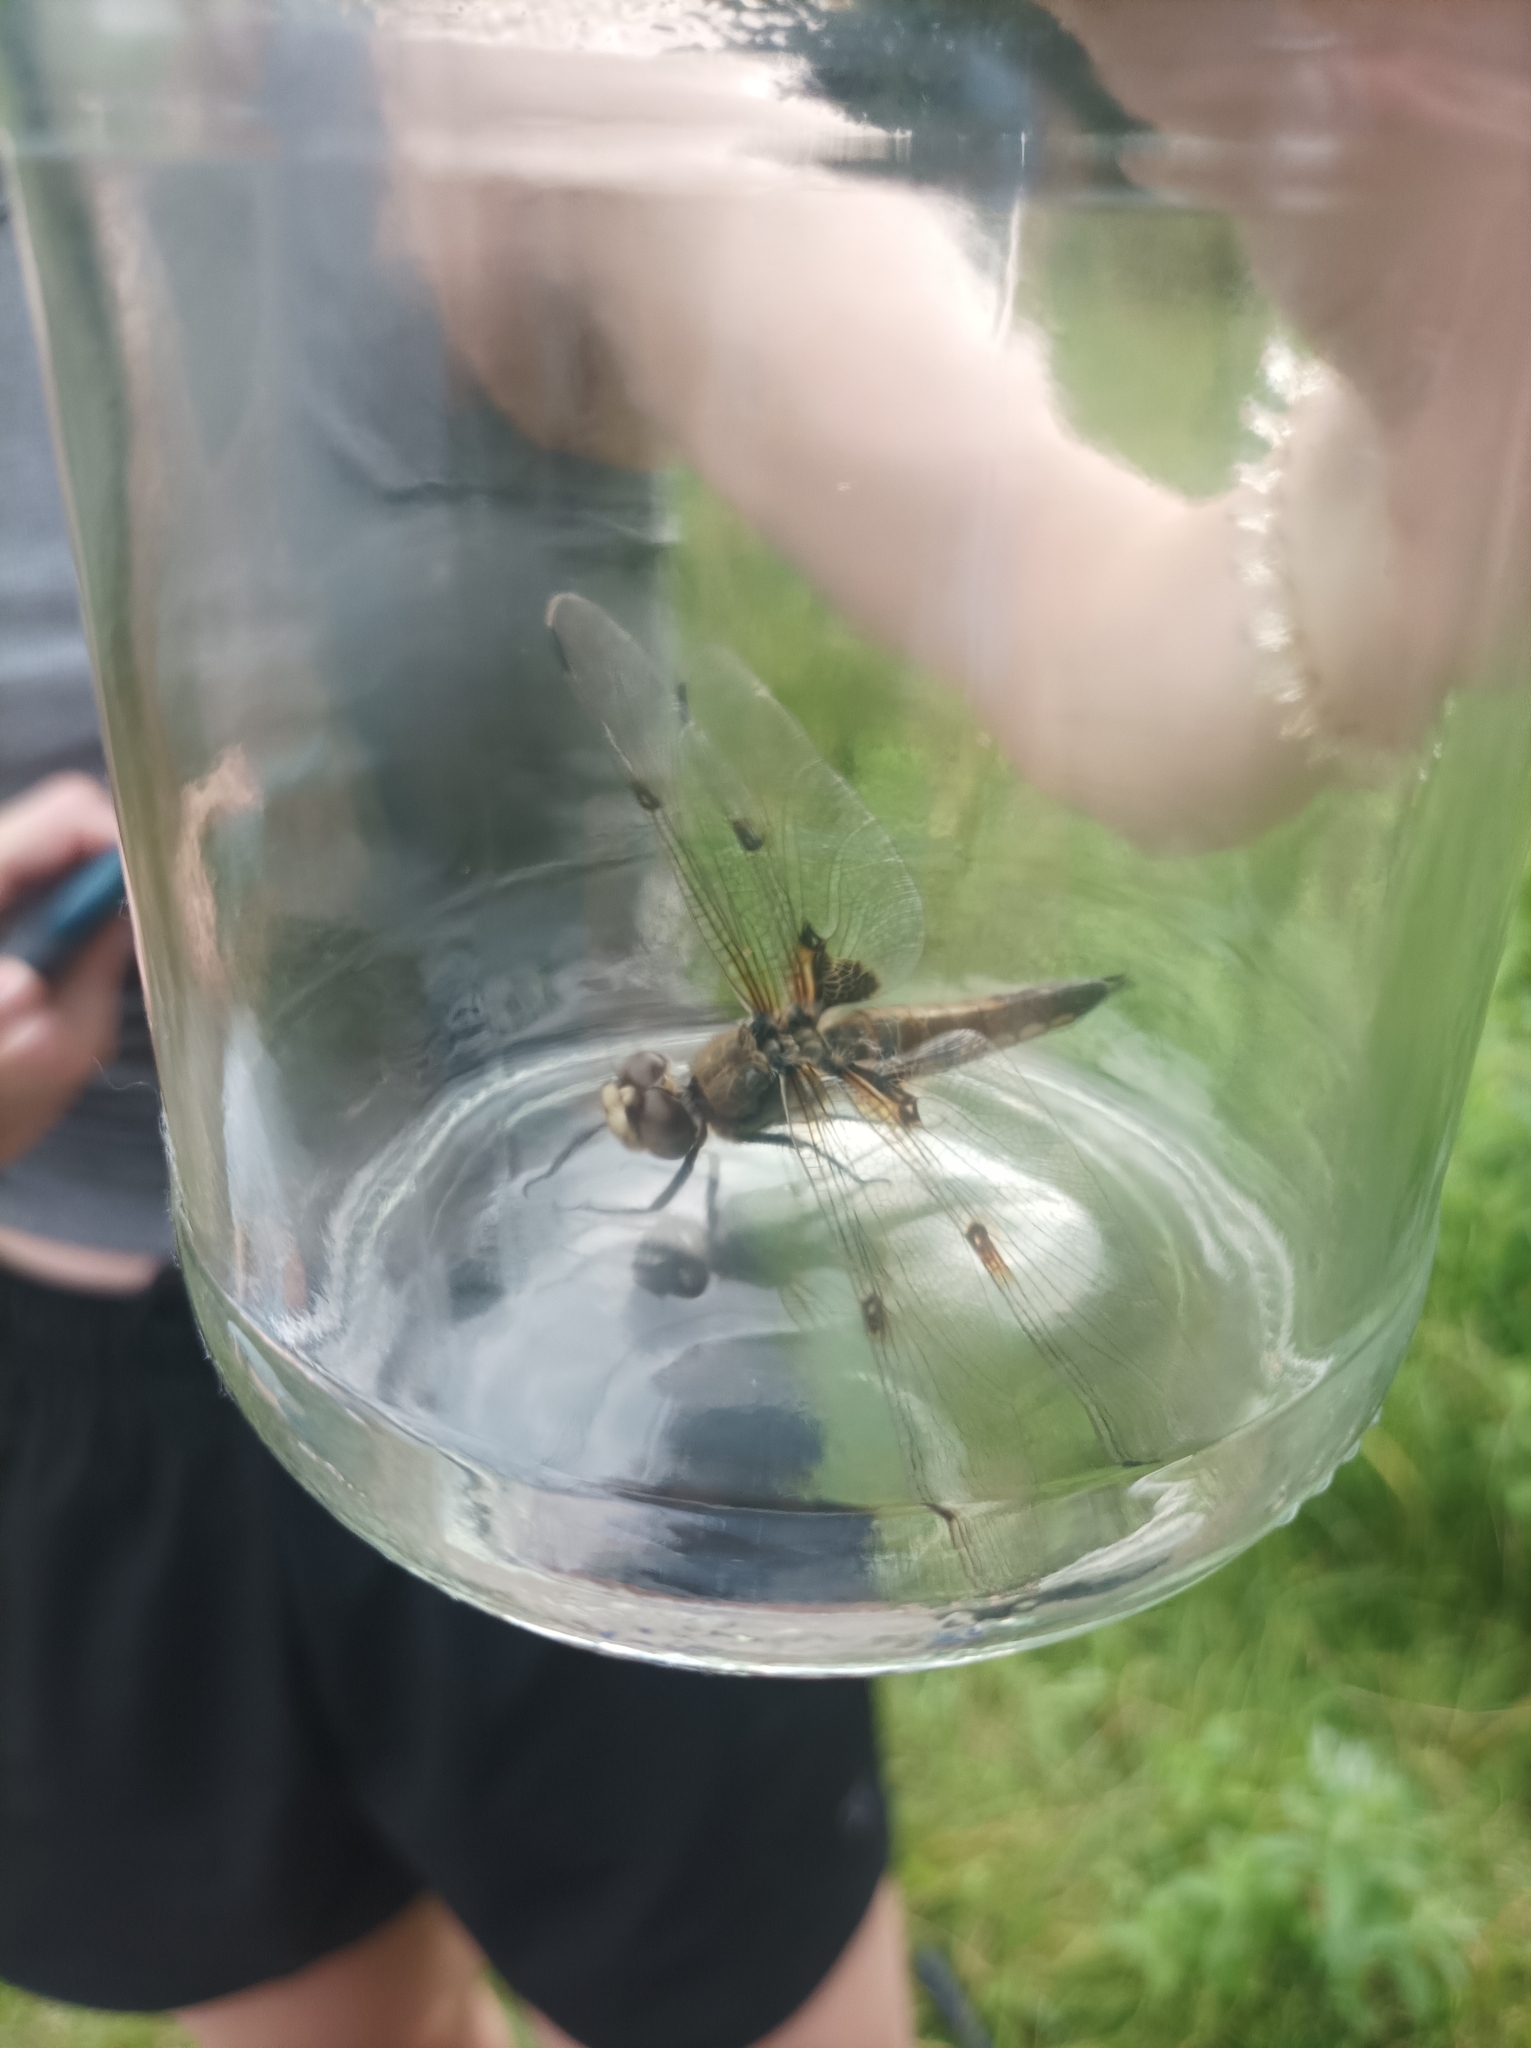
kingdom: Animalia
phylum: Arthropoda
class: Insecta
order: Odonata
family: Libellulidae
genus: Libellula
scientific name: Libellula quadrimaculata
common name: Four-spotted chaser
